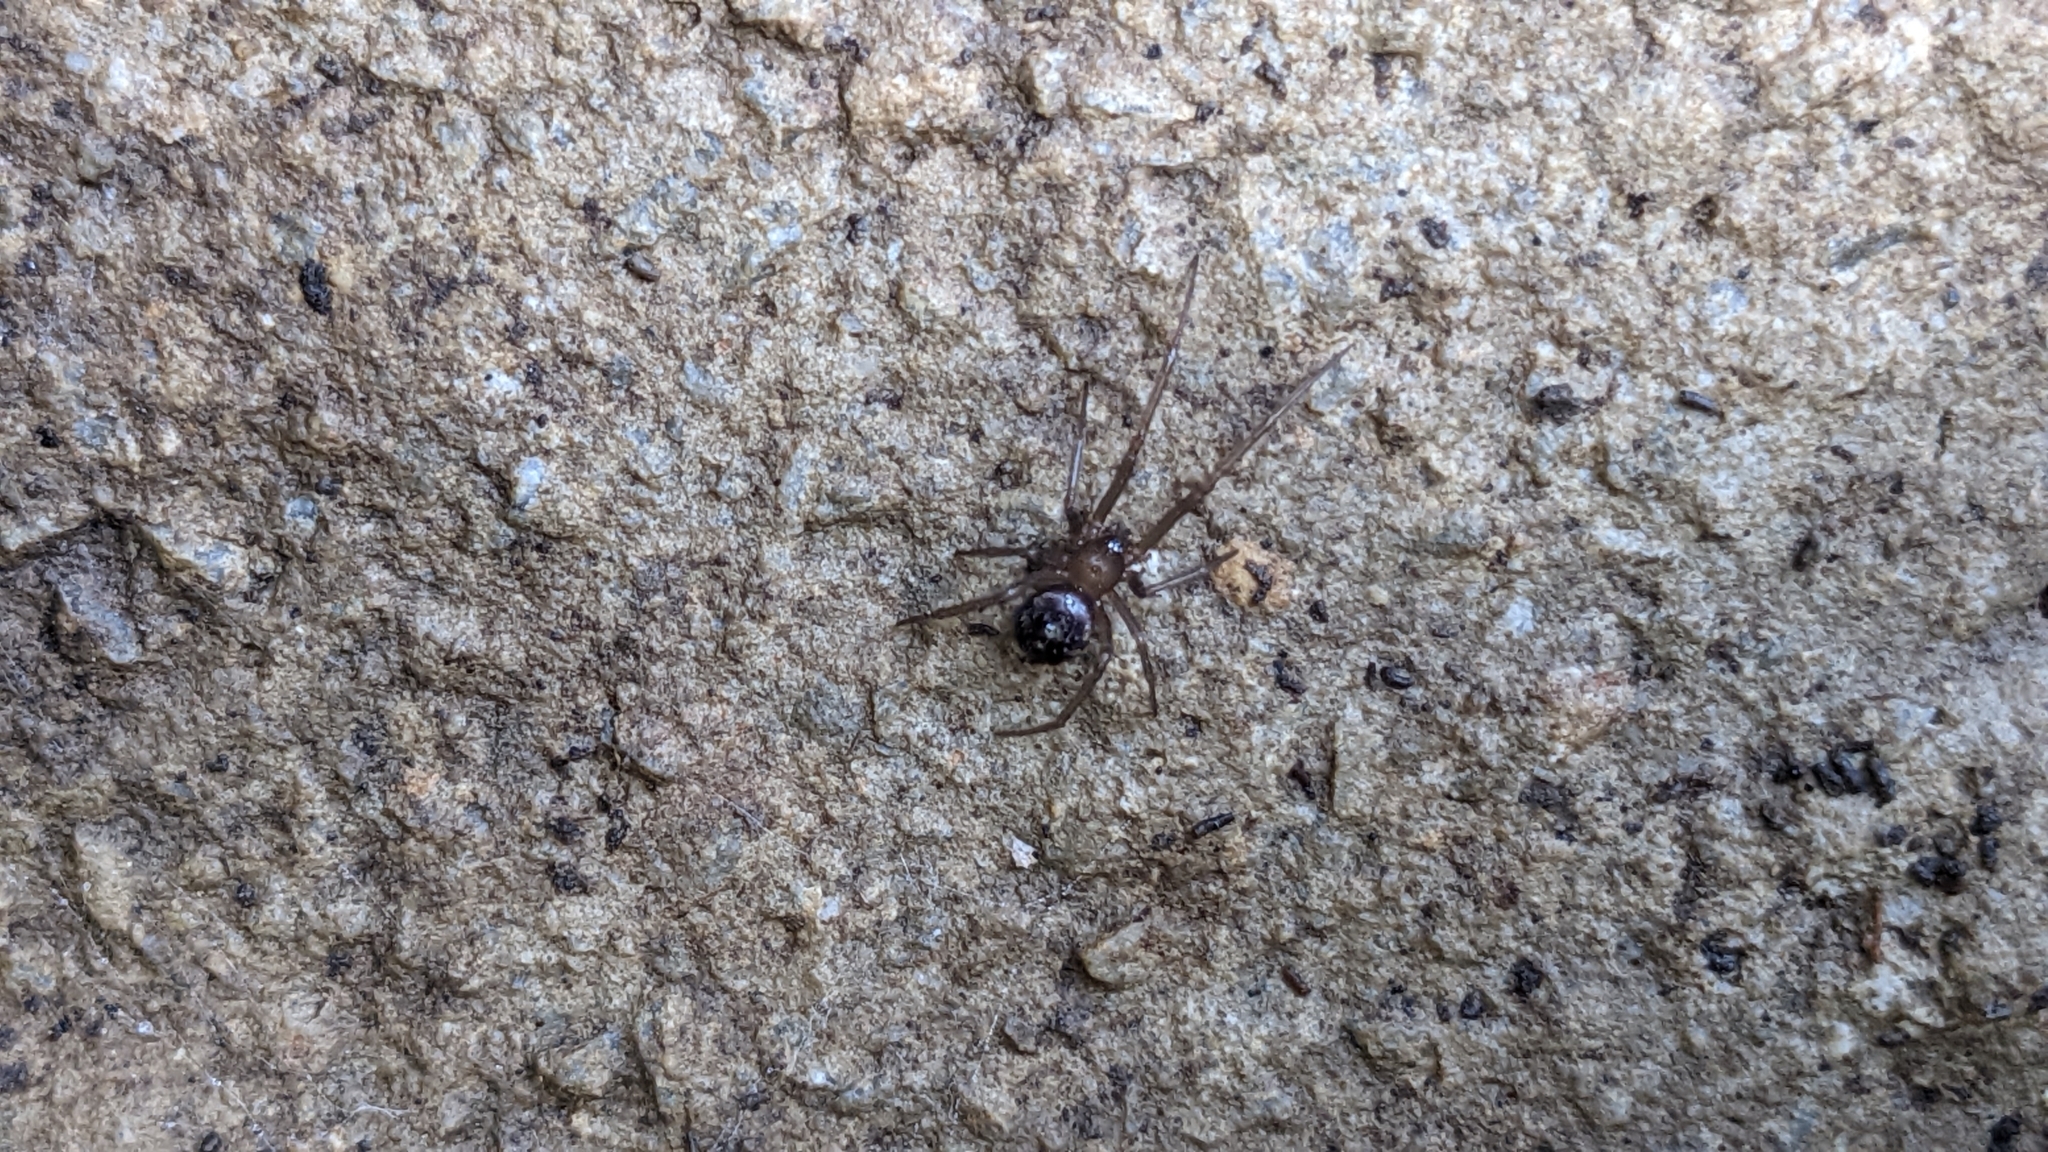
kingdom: Animalia
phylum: Arthropoda
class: Arachnida
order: Araneae
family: Theridiidae
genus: Steatoda
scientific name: Steatoda grossa
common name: False black widow
